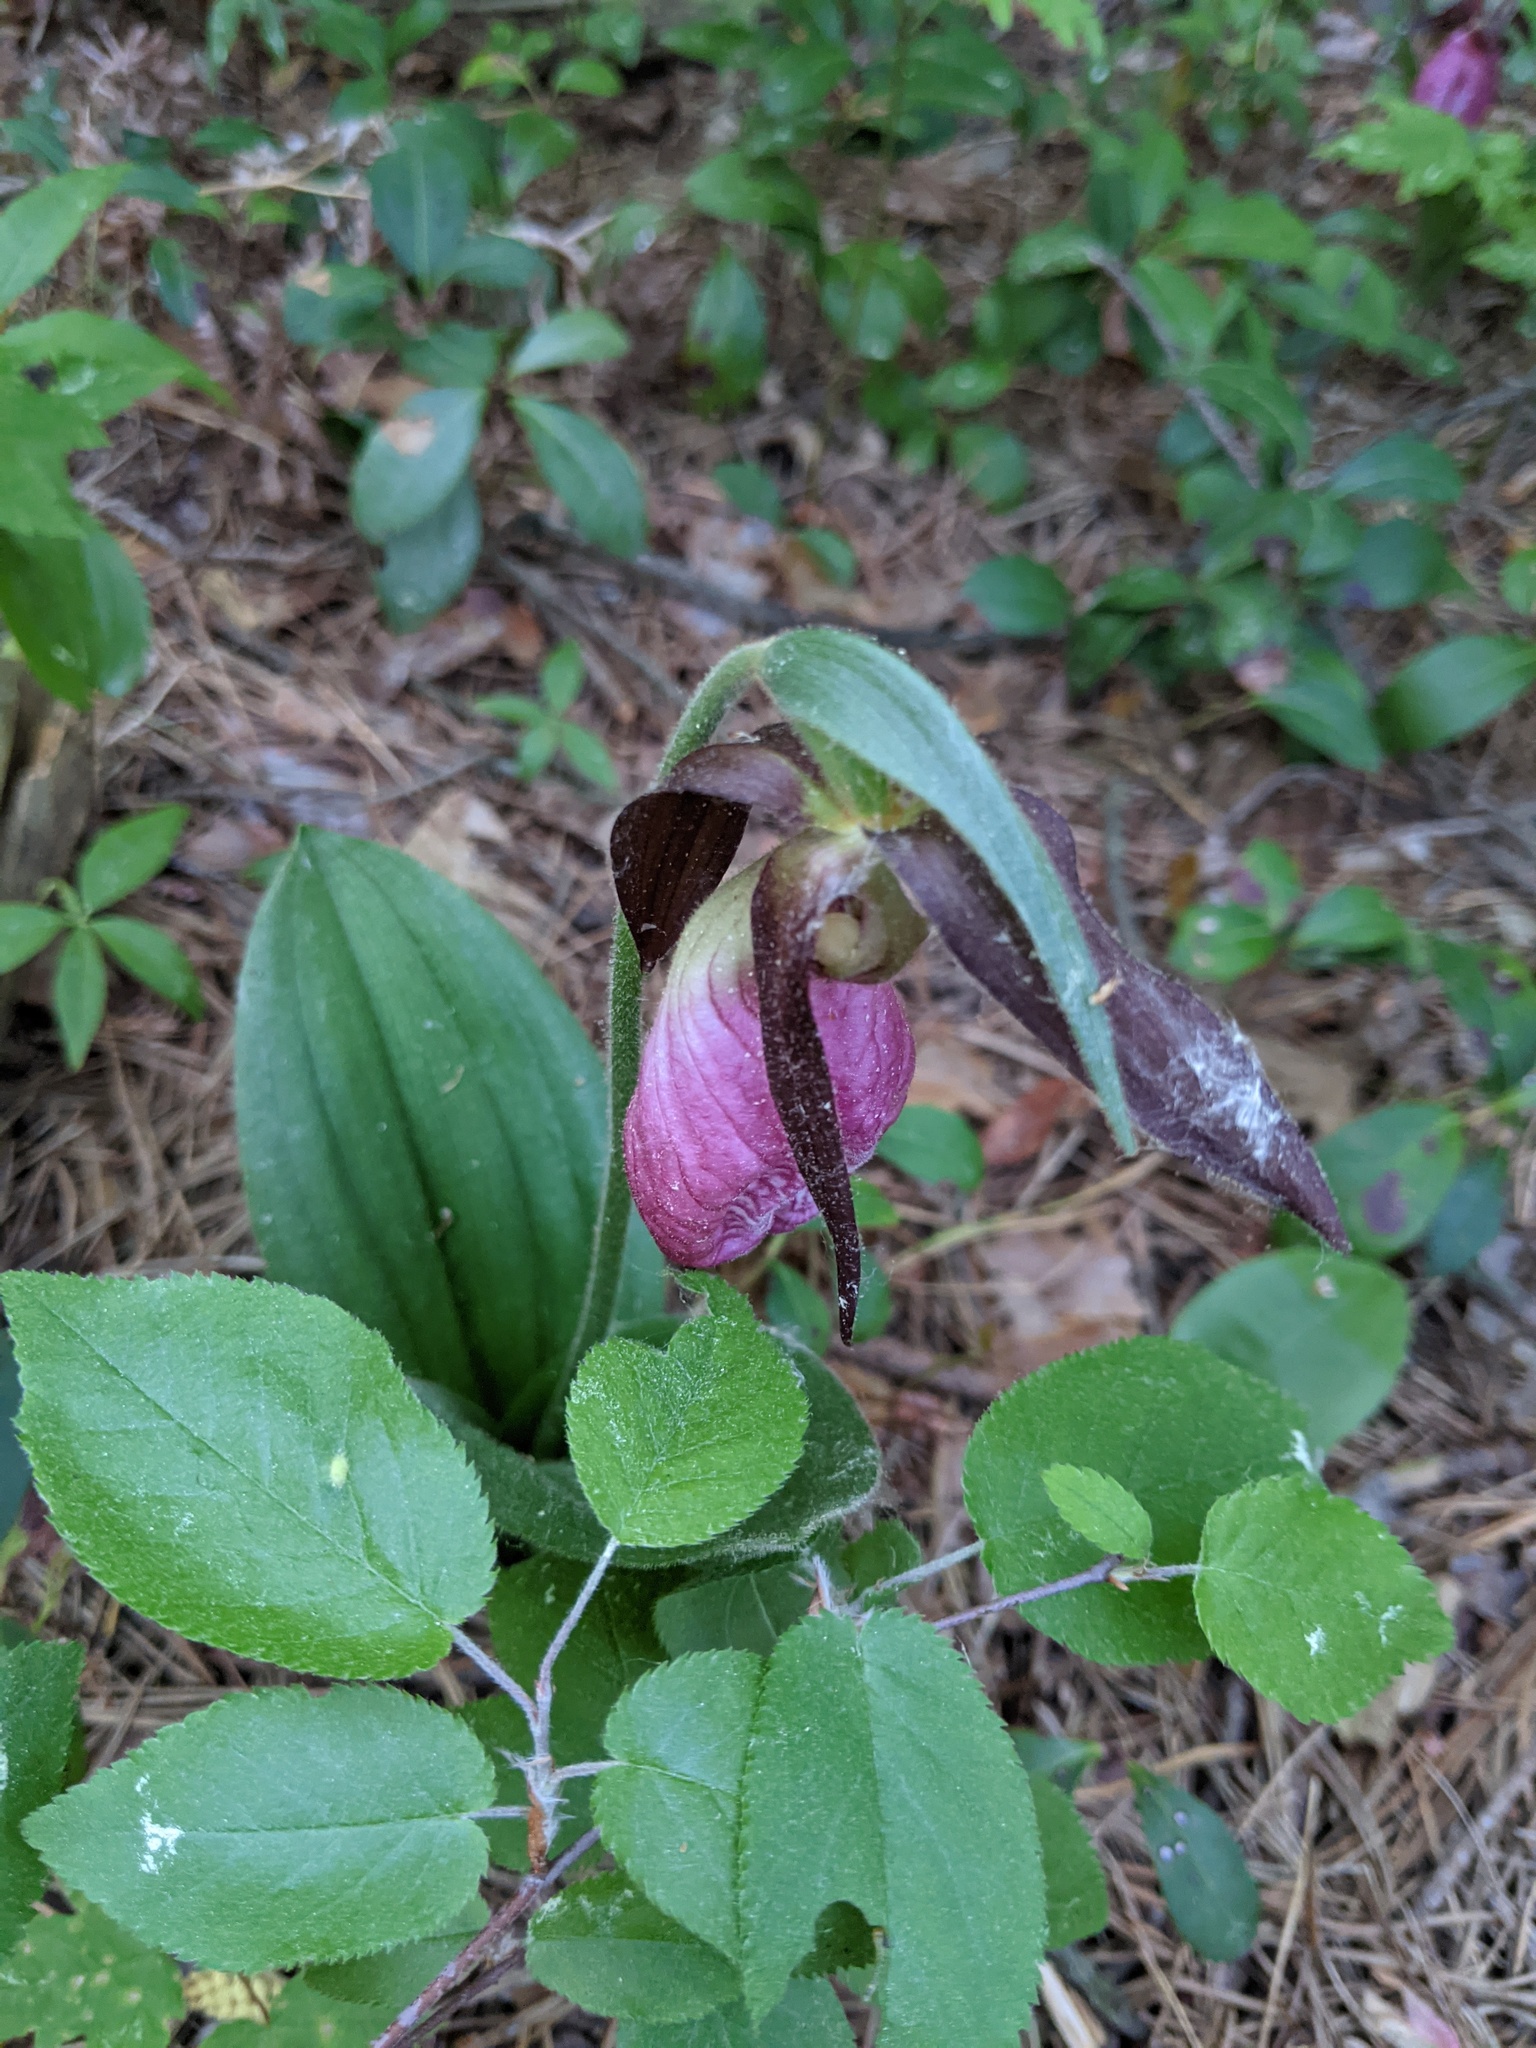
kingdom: Plantae
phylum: Tracheophyta
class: Liliopsida
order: Asparagales
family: Orchidaceae
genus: Cypripedium
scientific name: Cypripedium acaule
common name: Pink lady's-slipper
